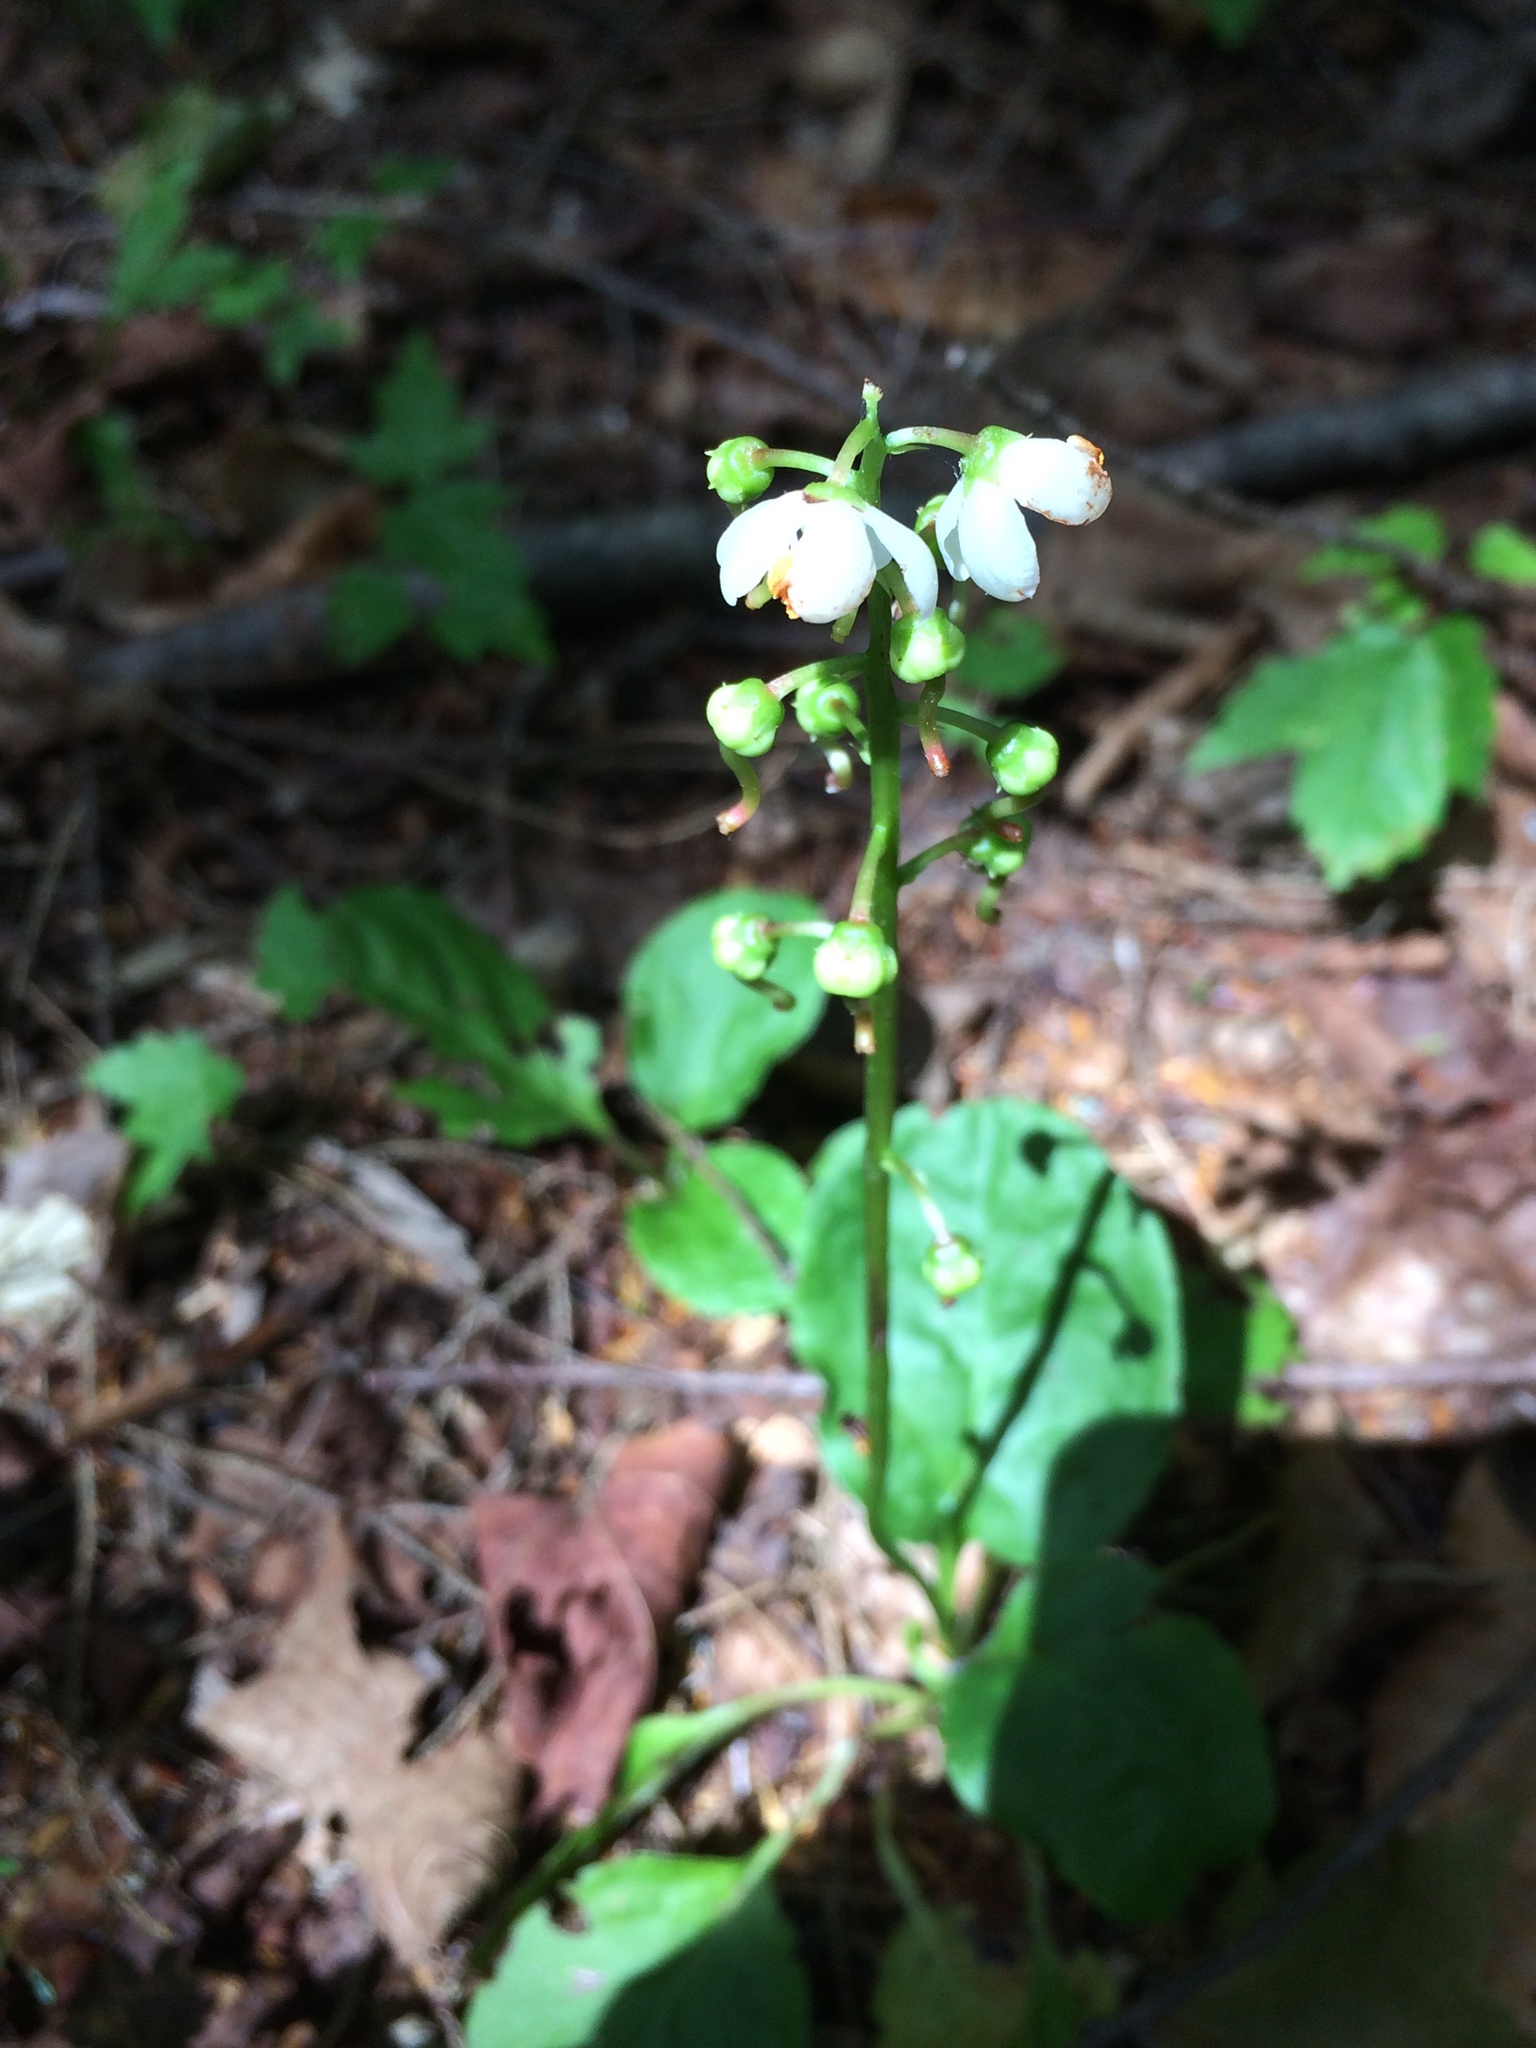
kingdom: Plantae
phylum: Tracheophyta
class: Magnoliopsida
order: Ericales
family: Ericaceae
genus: Pyrola
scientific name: Pyrola elliptica
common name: Shinleaf
